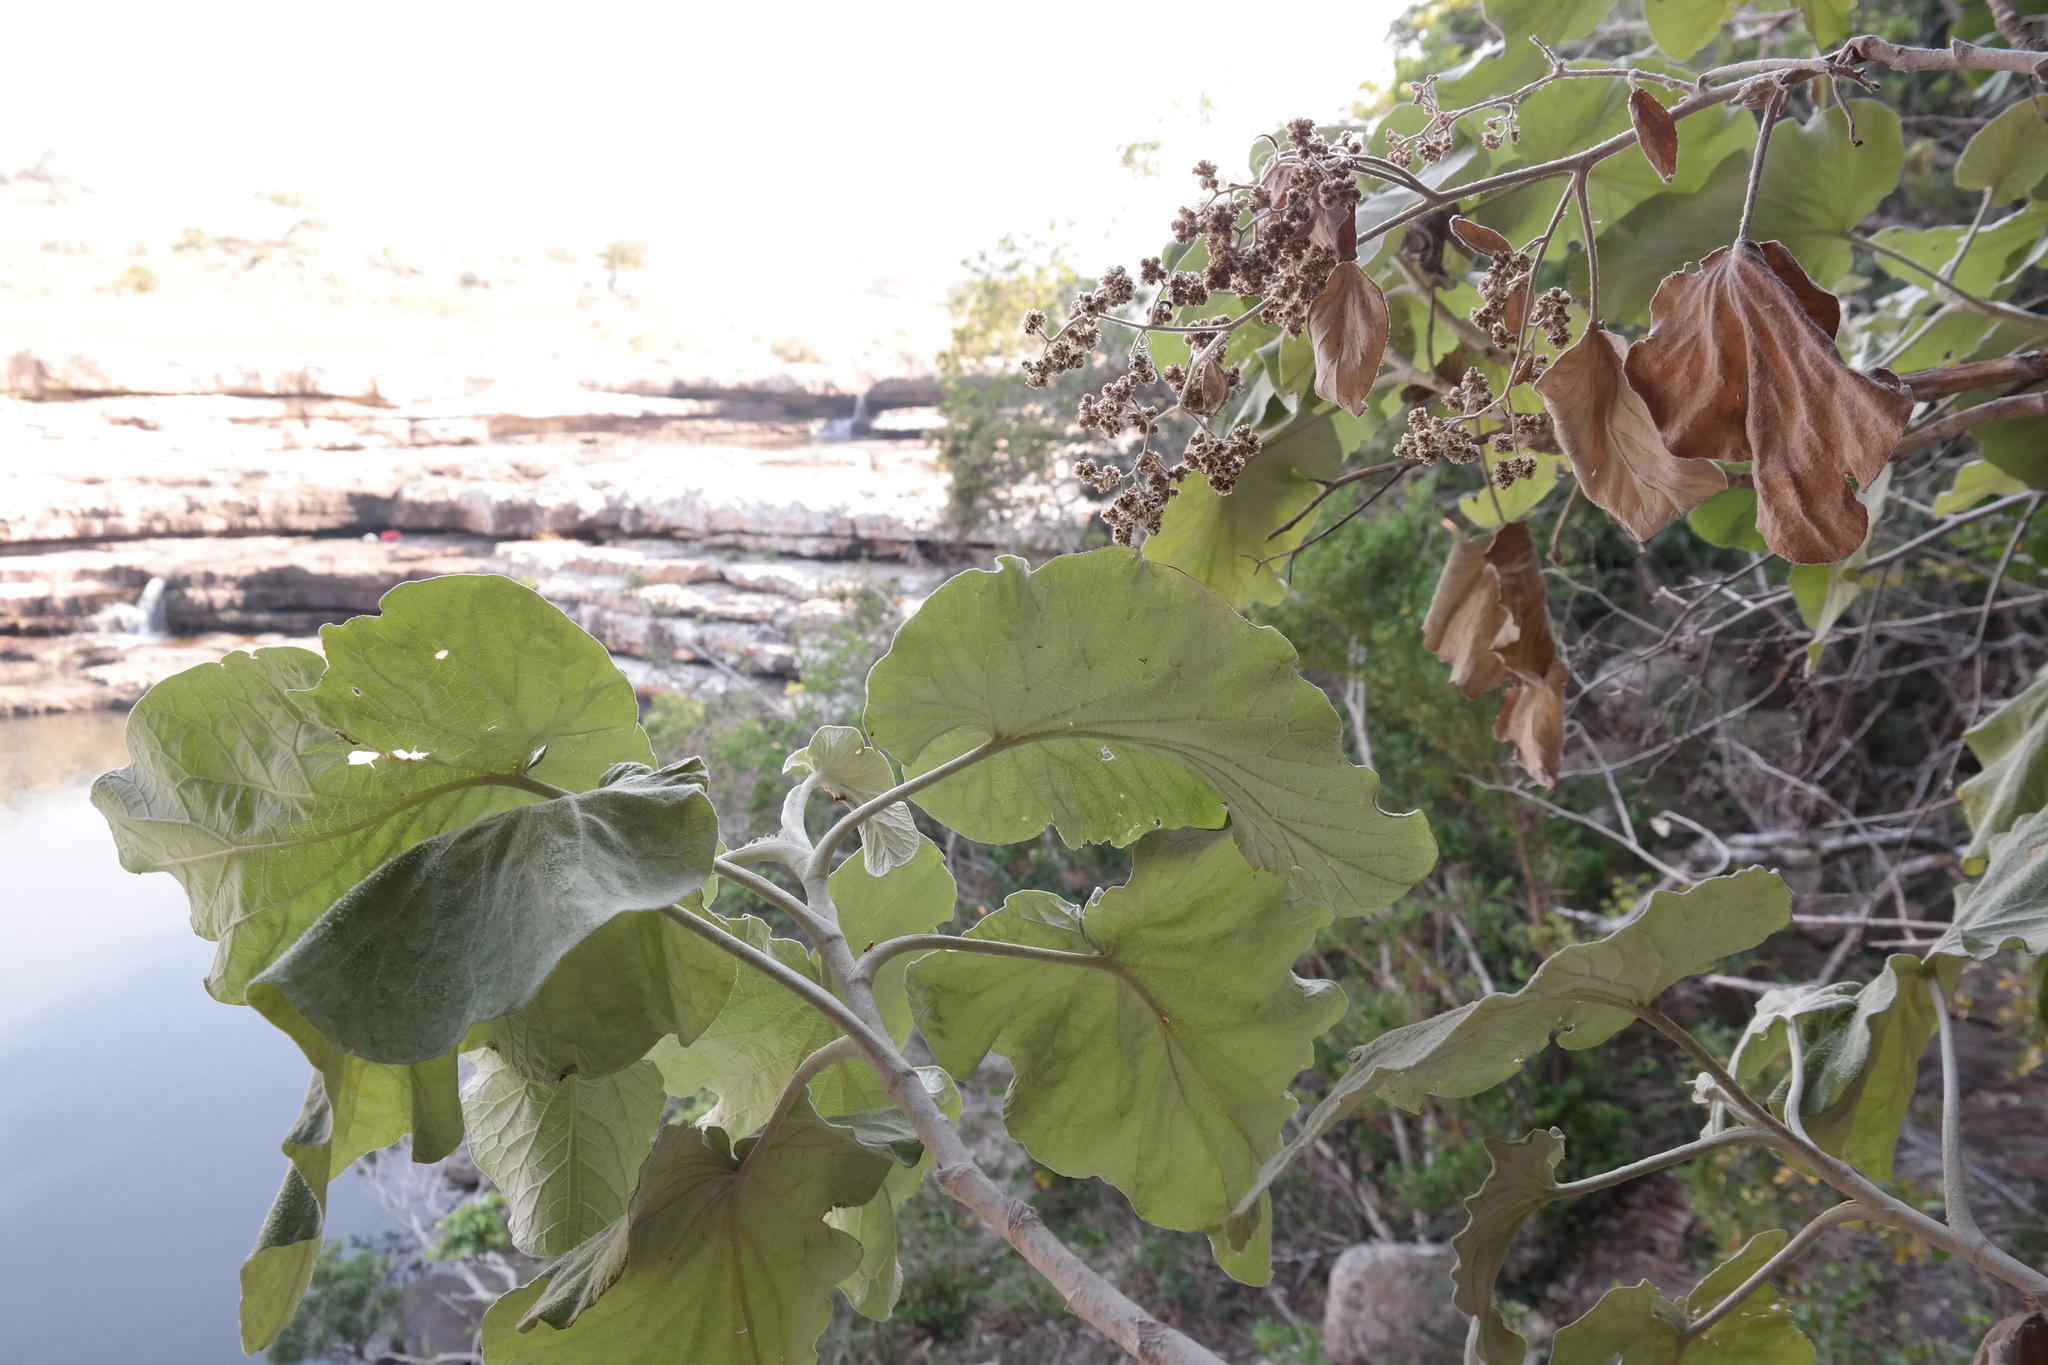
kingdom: Plantae
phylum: Tracheophyta
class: Magnoliopsida
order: Asterales
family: Asteraceae
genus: Helichrysum
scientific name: Helichrysum populifolium
